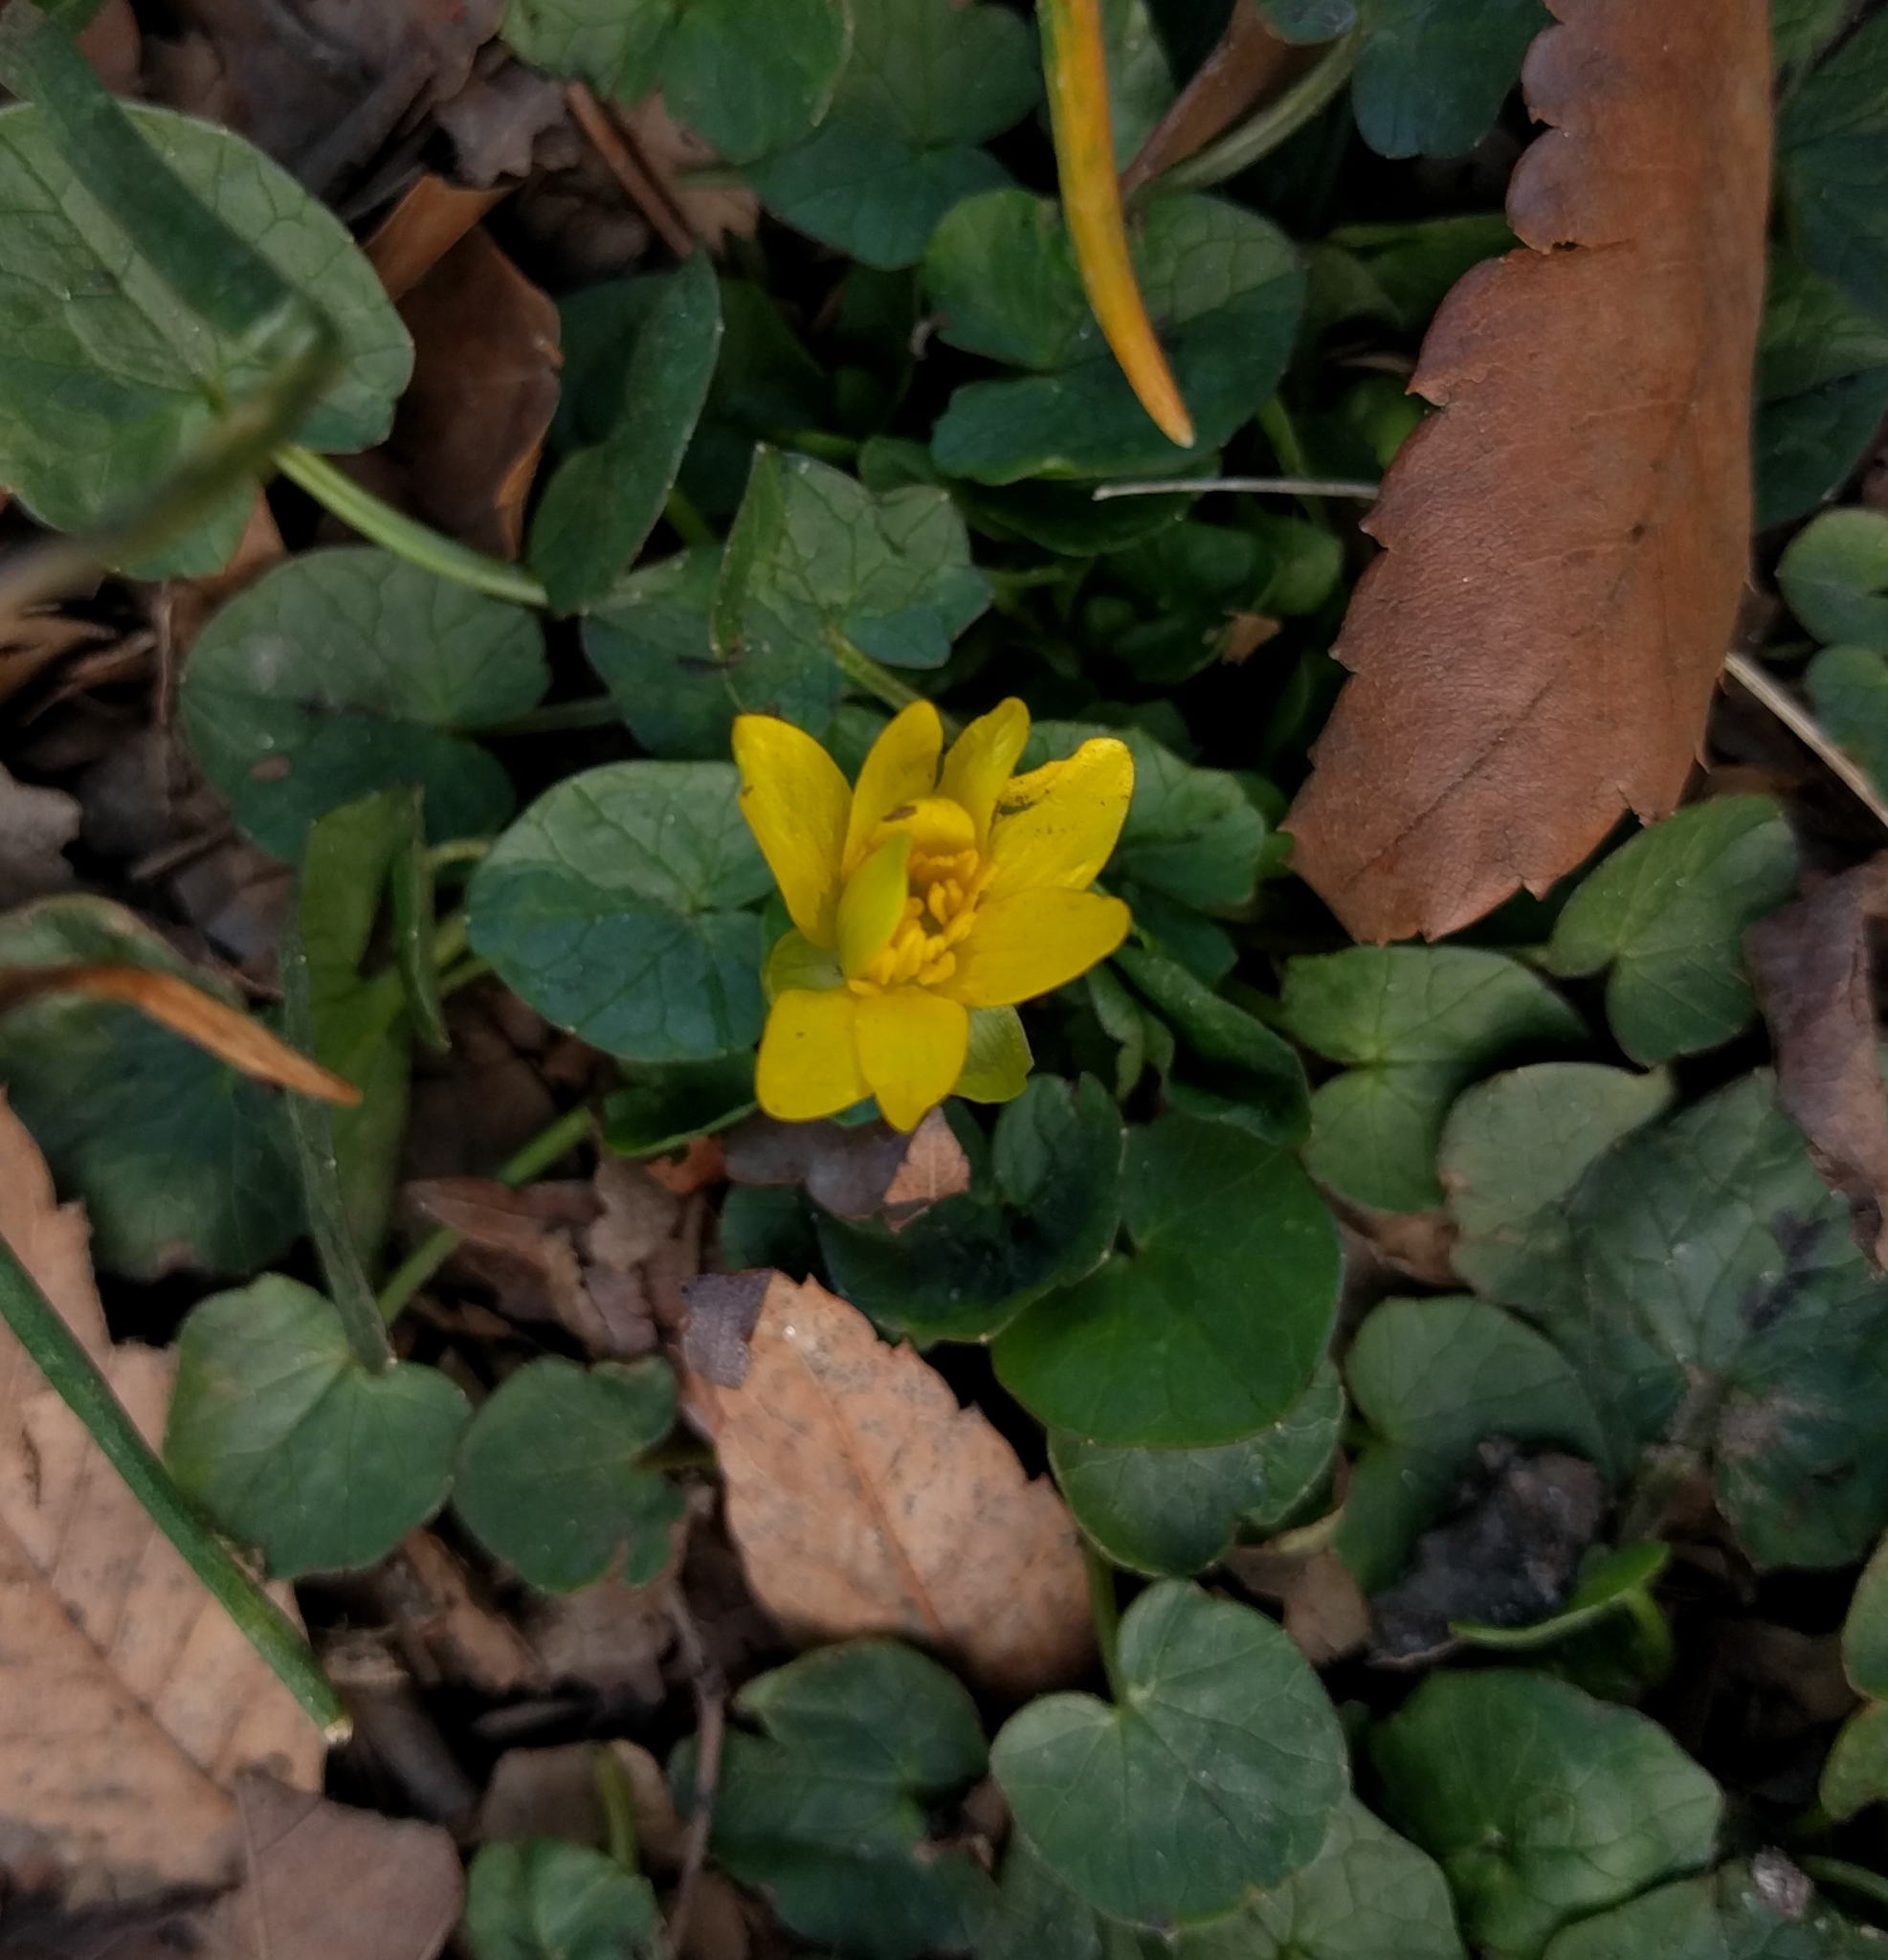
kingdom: Plantae
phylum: Tracheophyta
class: Magnoliopsida
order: Ranunculales
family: Ranunculaceae
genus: Ficaria
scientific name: Ficaria verna
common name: Lesser celandine
